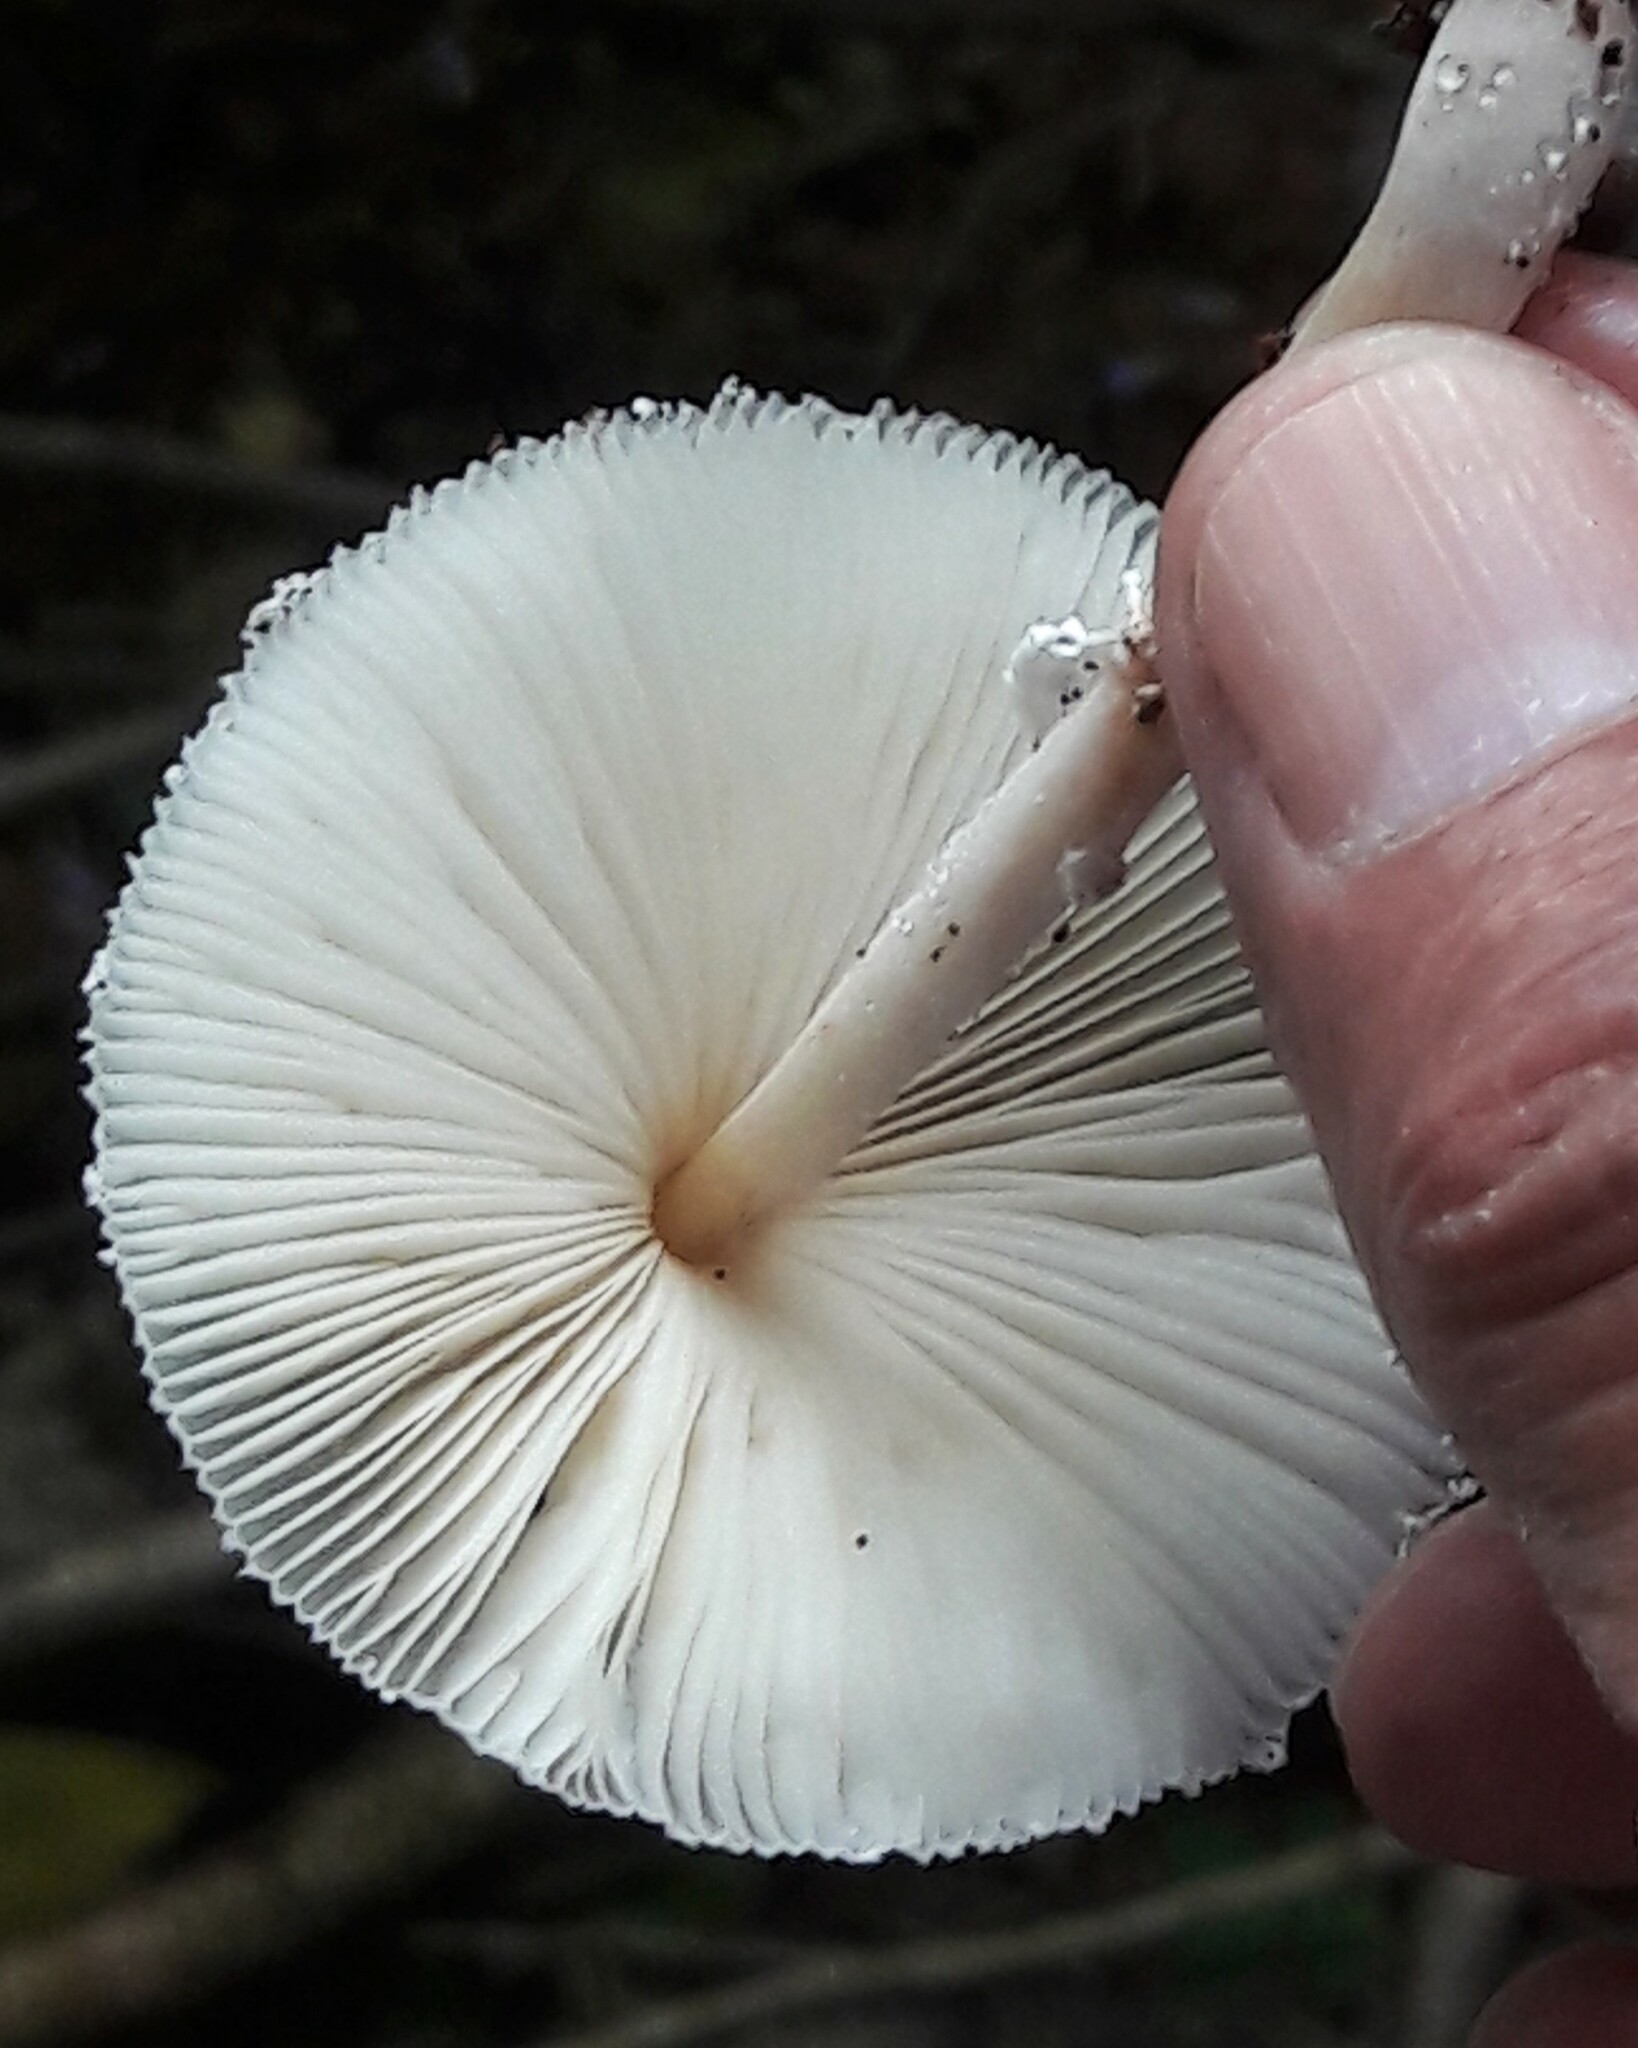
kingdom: Fungi
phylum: Basidiomycota
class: Agaricomycetes
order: Agaricales
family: Agaricaceae
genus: Leucocoprinus
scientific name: Leucocoprinus brebissonii
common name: Skullcap dapperling
